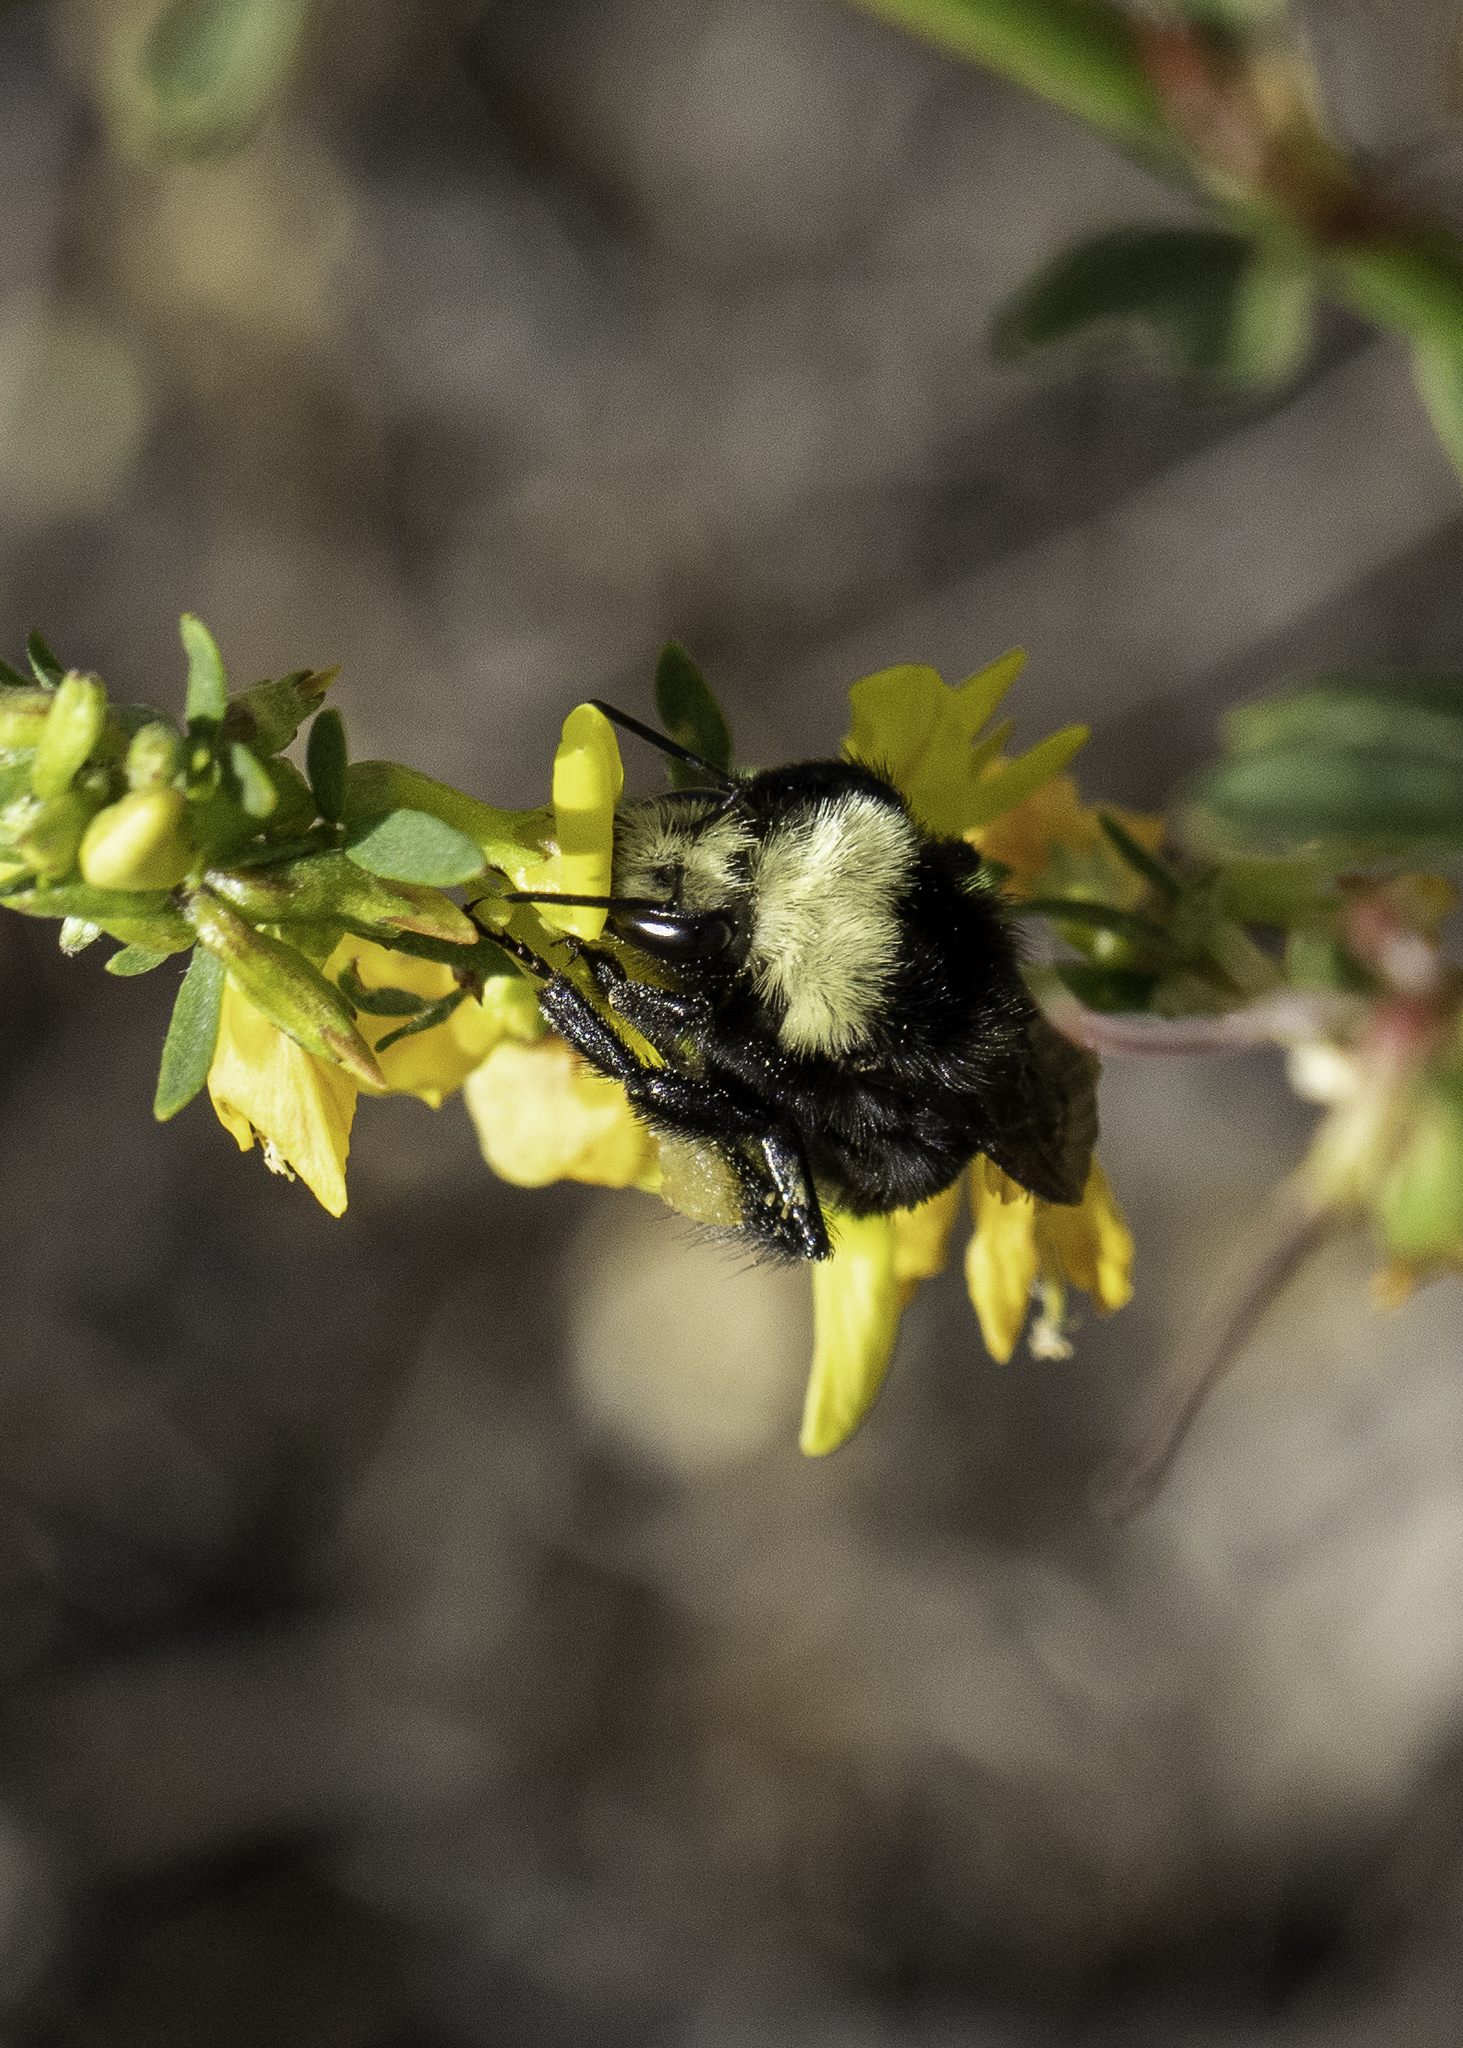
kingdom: Animalia
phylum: Arthropoda
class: Insecta
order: Hymenoptera
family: Apidae
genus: Bombus
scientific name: Bombus vosnesenskii
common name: Vosnesensky bumble bee
